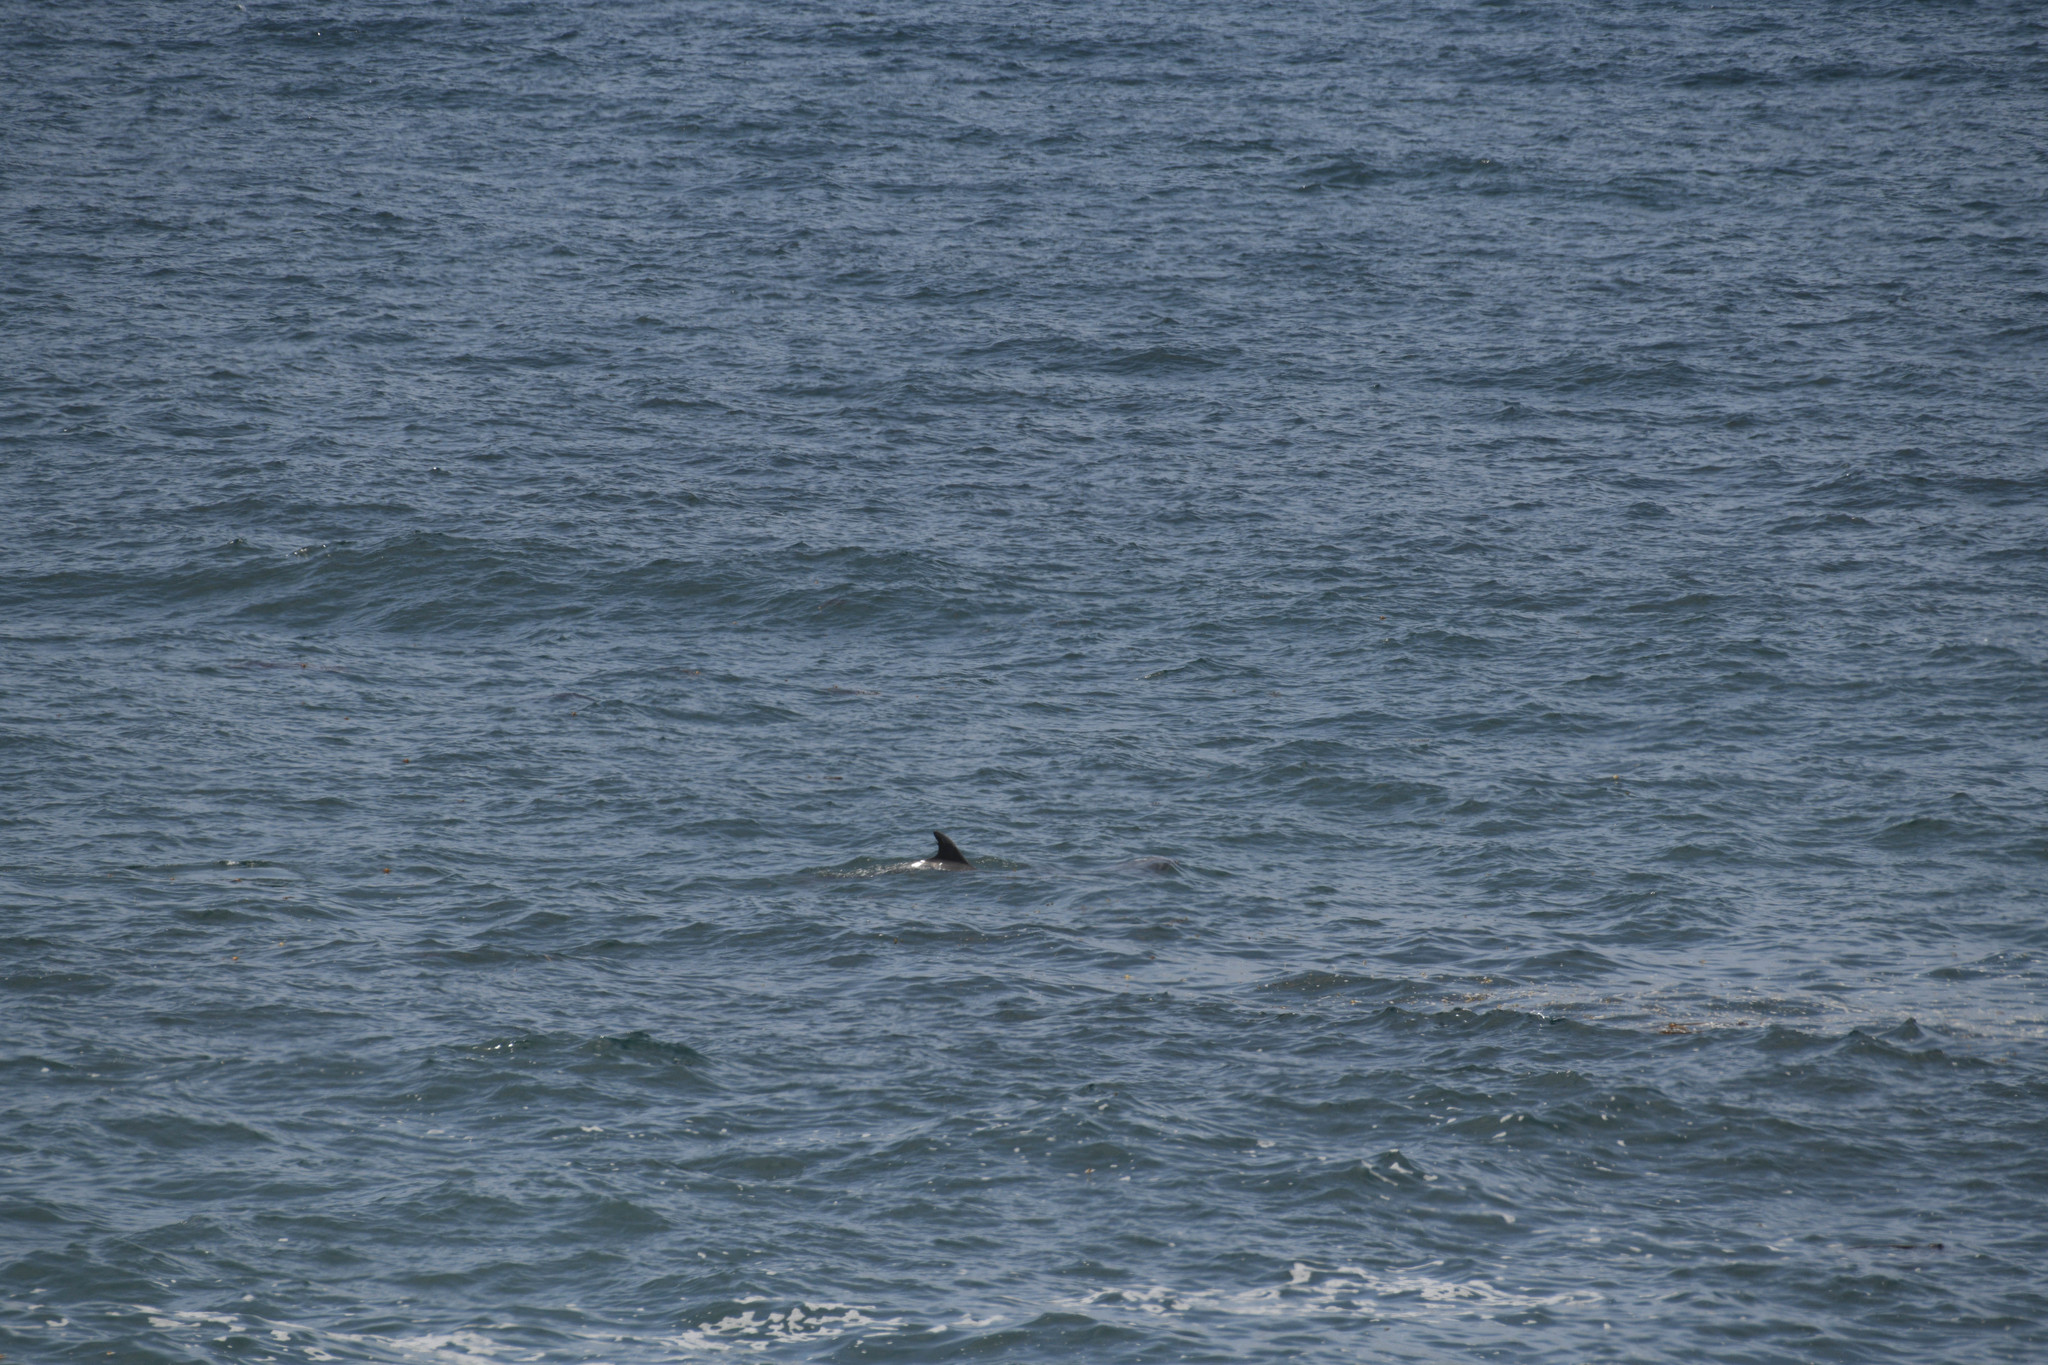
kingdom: Animalia
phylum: Chordata
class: Mammalia
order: Cetacea
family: Delphinidae
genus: Tursiops
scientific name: Tursiops truncatus
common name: Bottlenose dolphin
